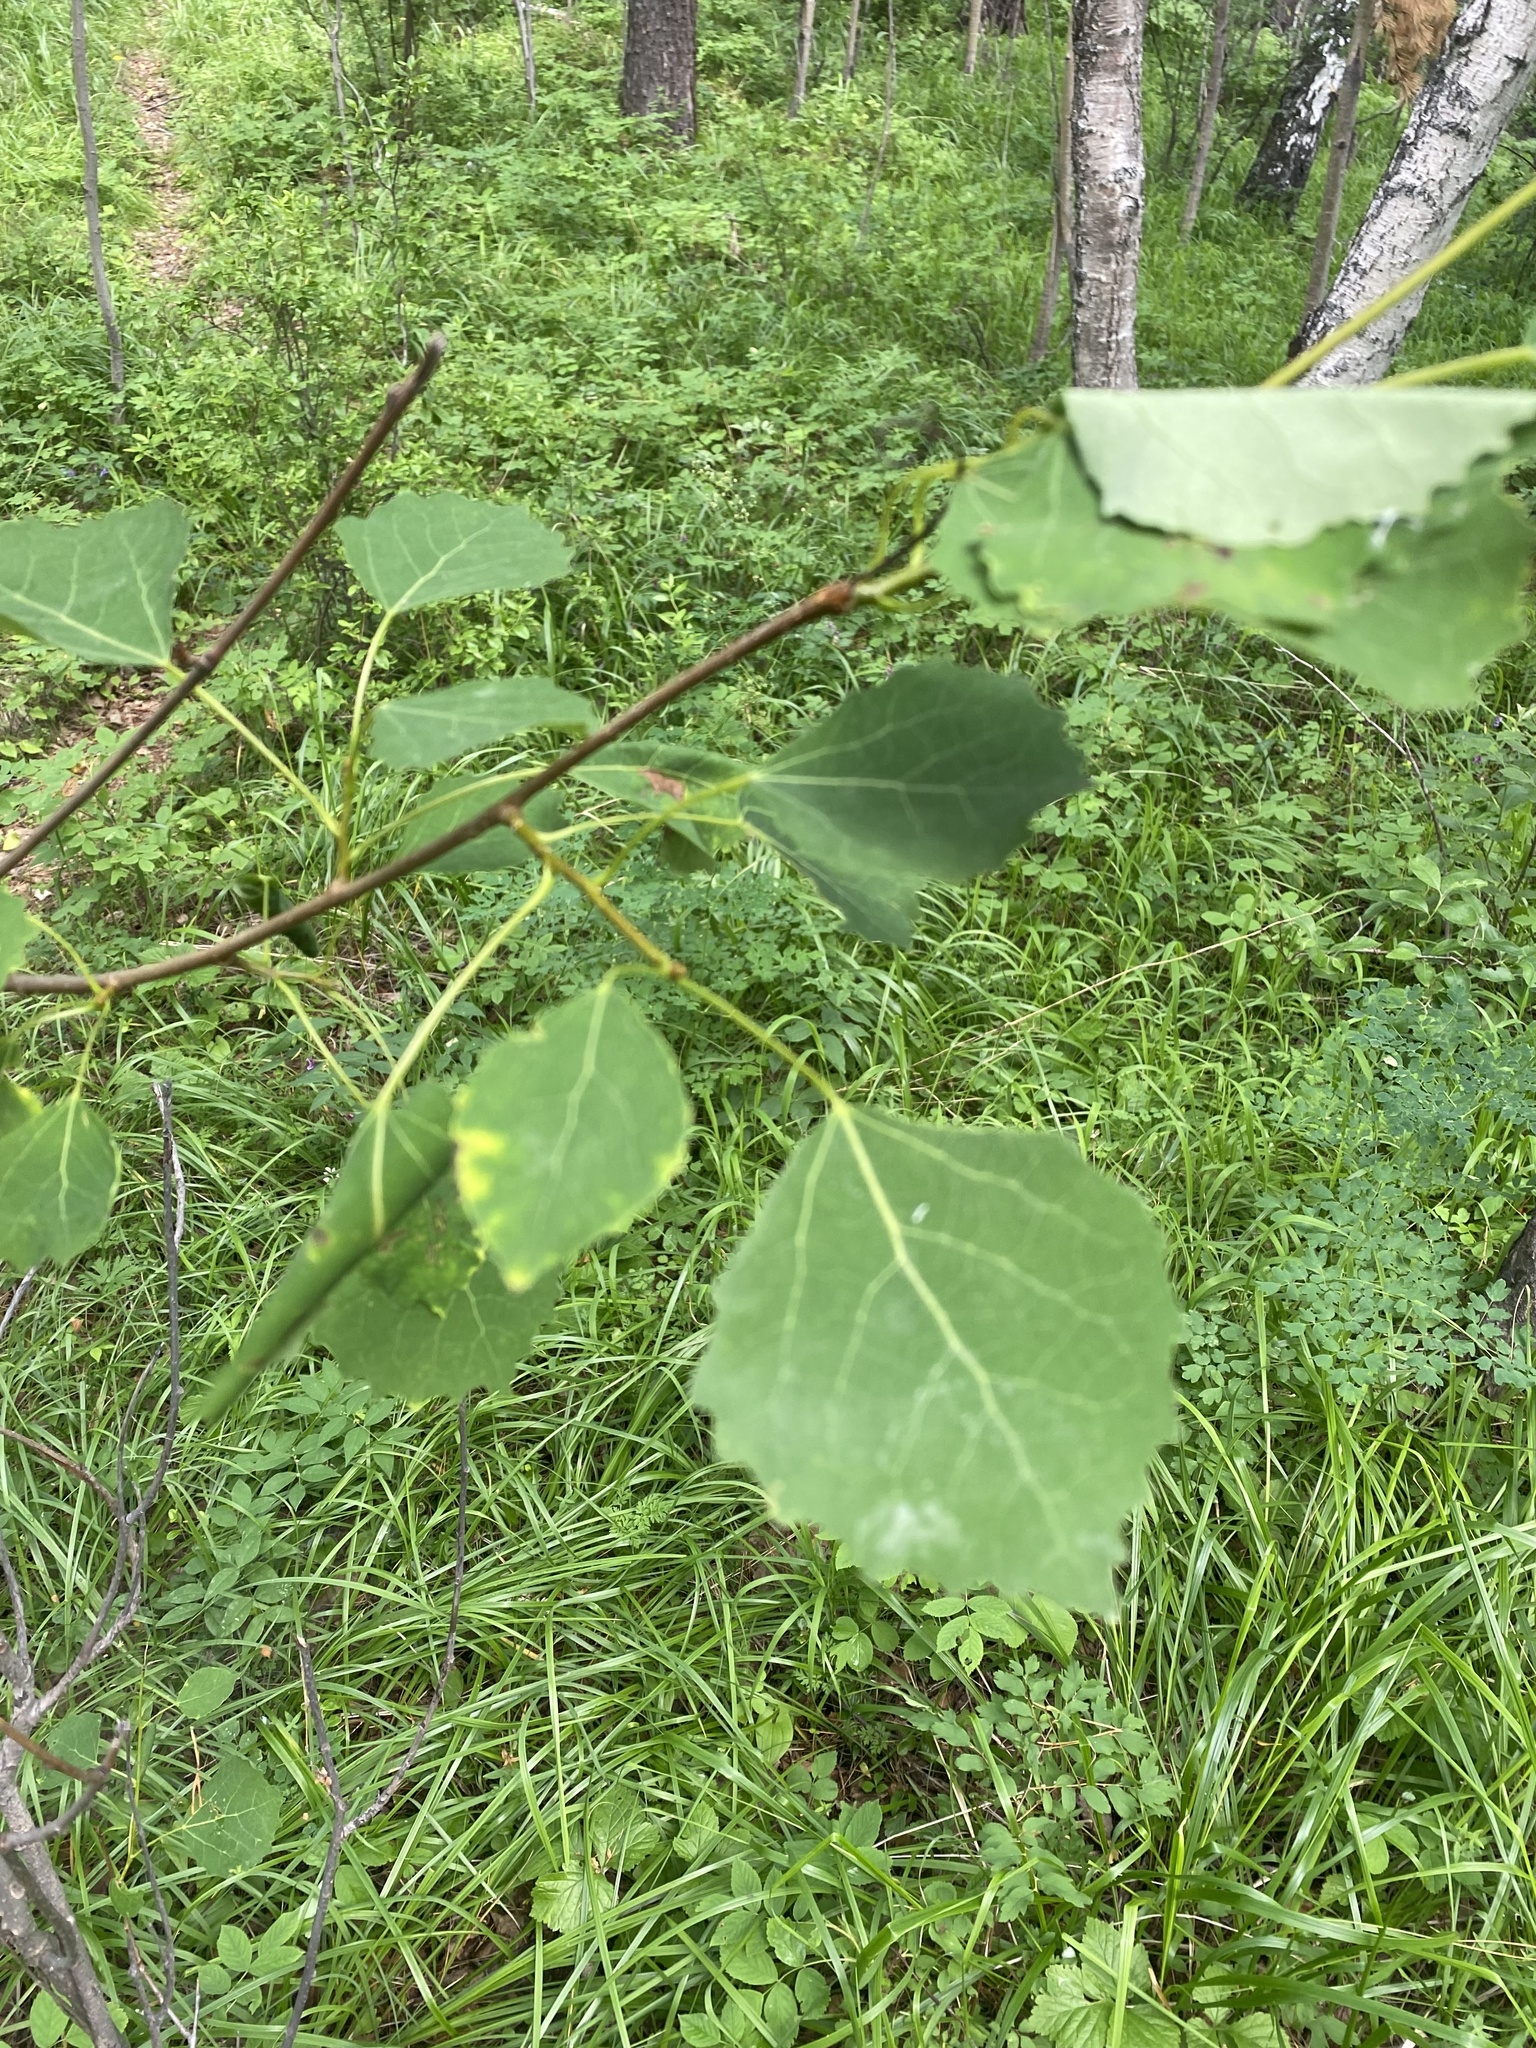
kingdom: Plantae
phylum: Tracheophyta
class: Magnoliopsida
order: Malpighiales
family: Salicaceae
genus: Populus
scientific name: Populus tremula
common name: European aspen
